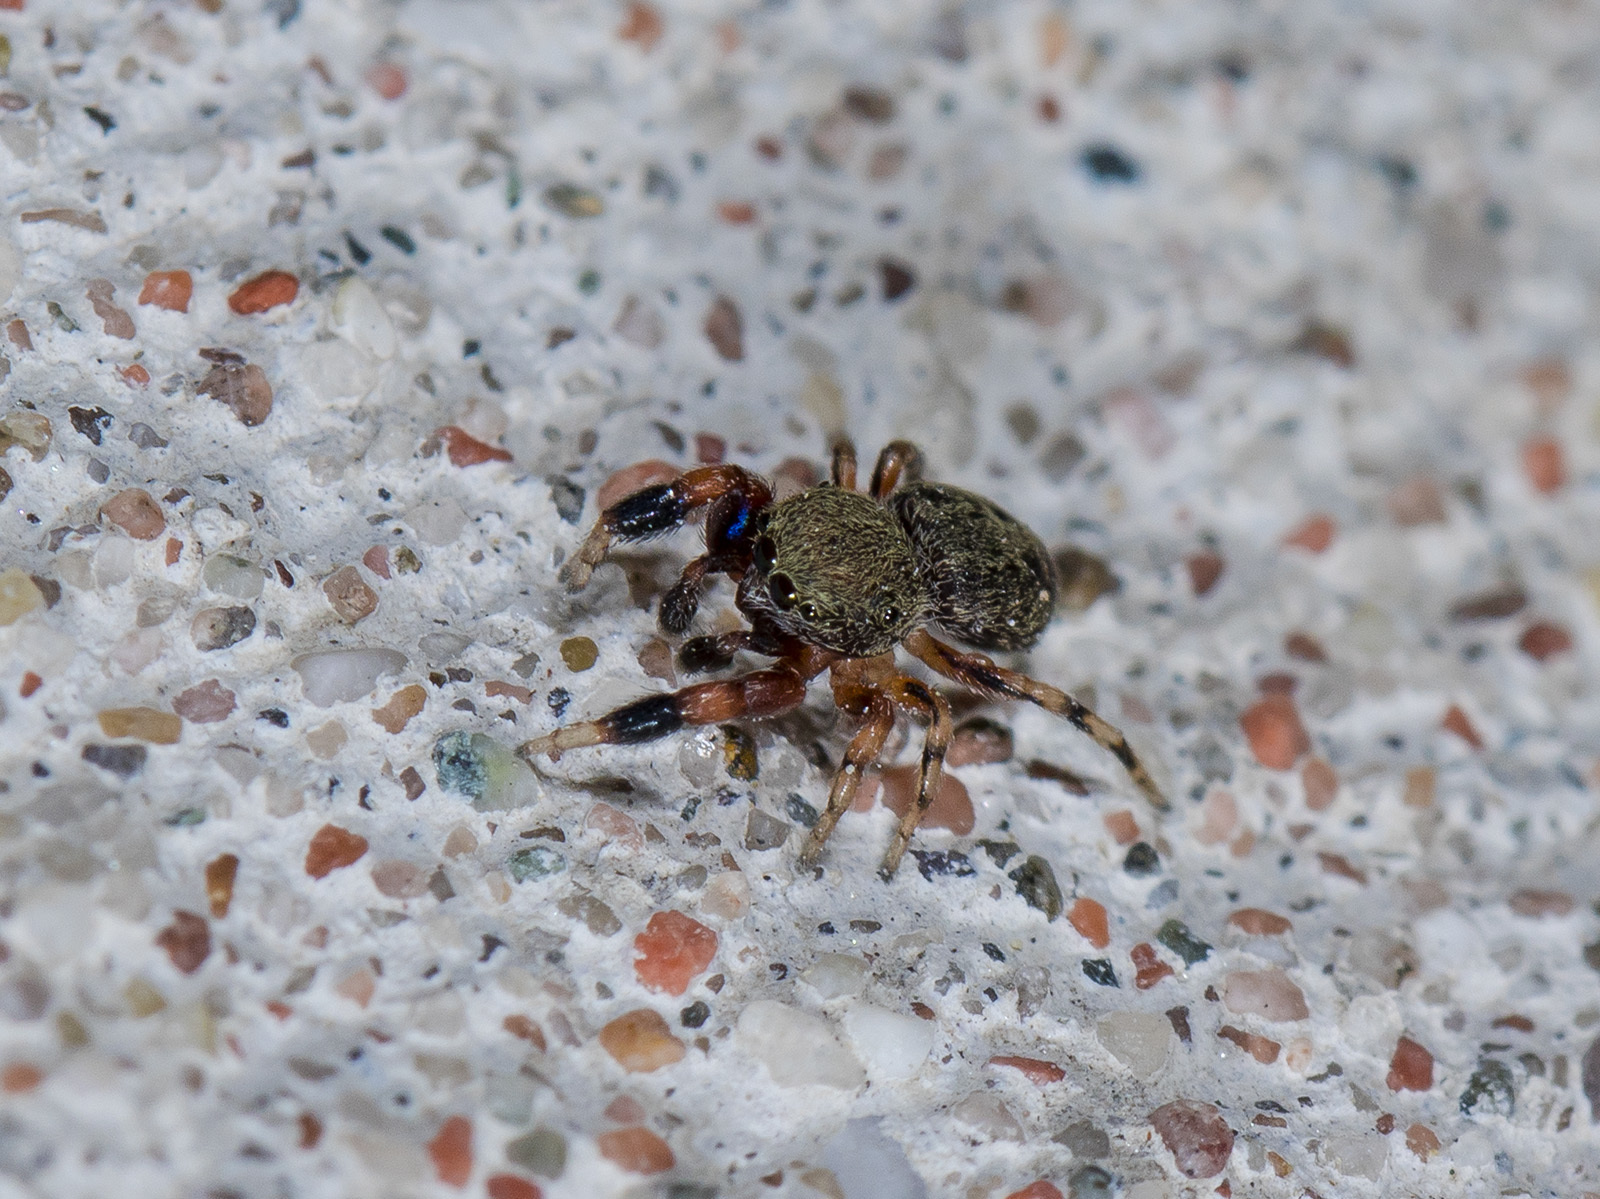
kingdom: Animalia
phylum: Arthropoda
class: Arachnida
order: Araneae
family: Salticidae
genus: Ballus
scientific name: Ballus chalybeius
